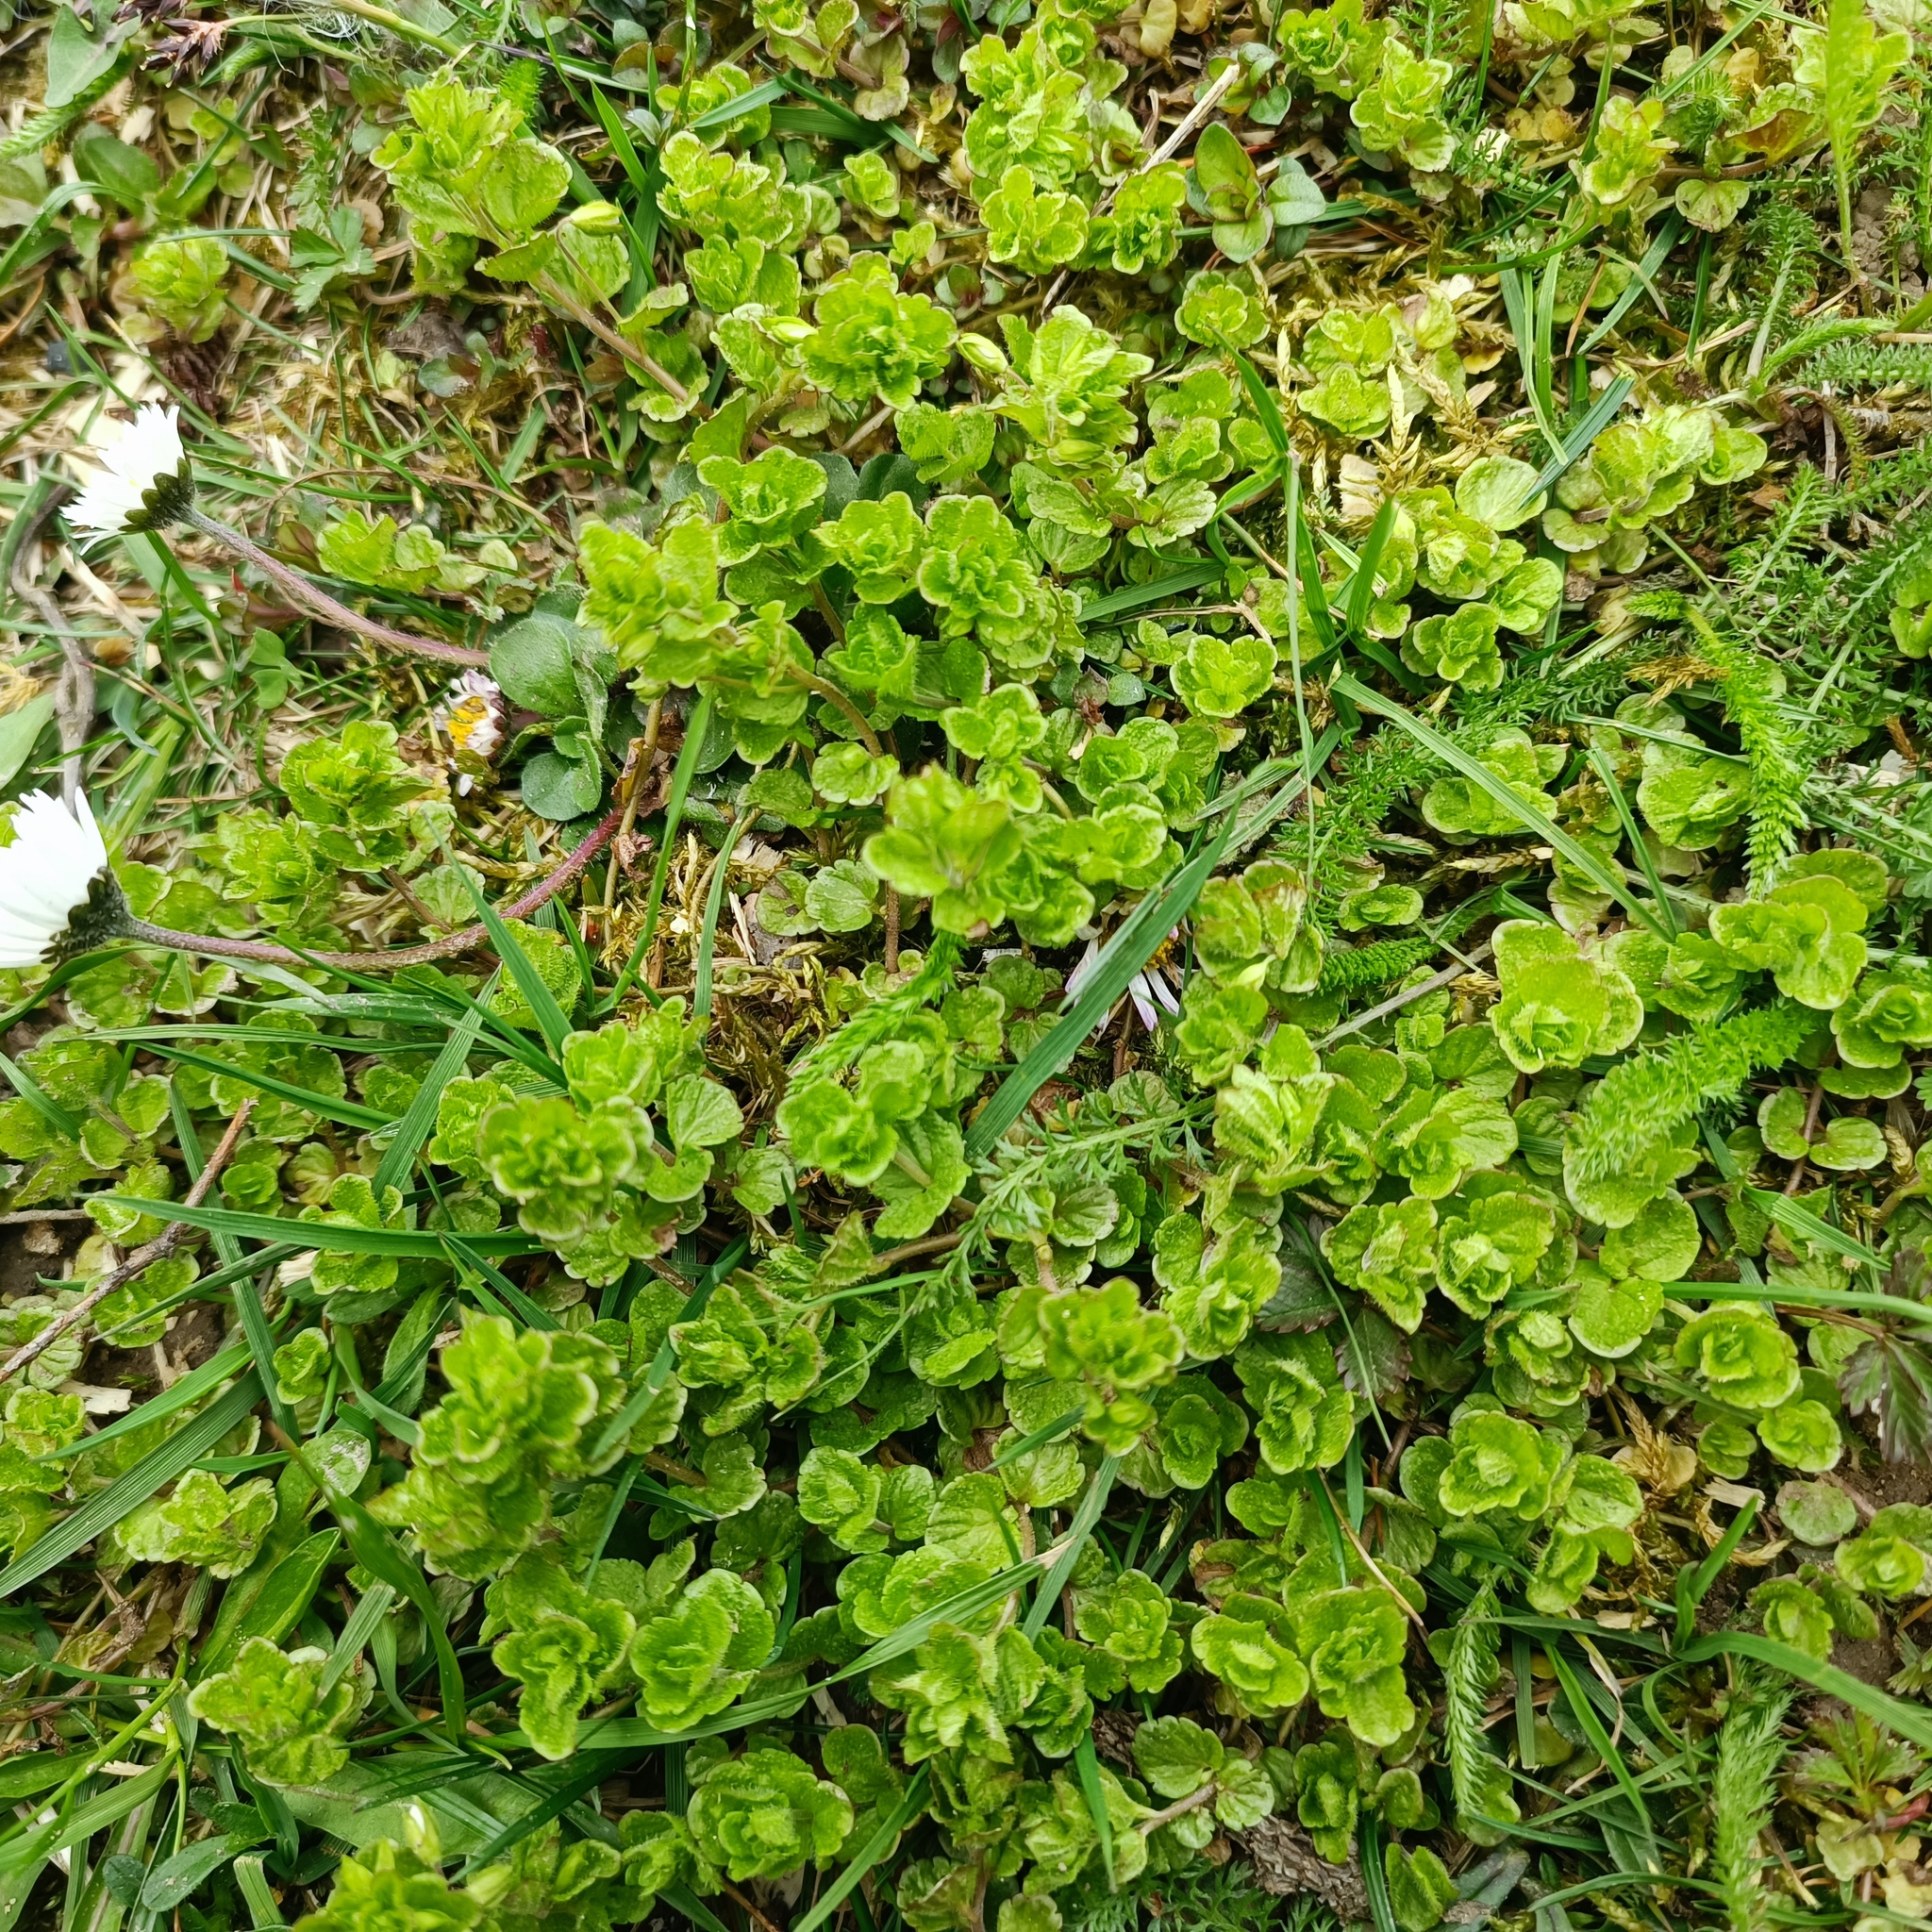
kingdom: Plantae
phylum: Tracheophyta
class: Magnoliopsida
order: Lamiales
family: Plantaginaceae
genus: Veronica
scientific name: Veronica filiformis
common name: Slender speedwell
